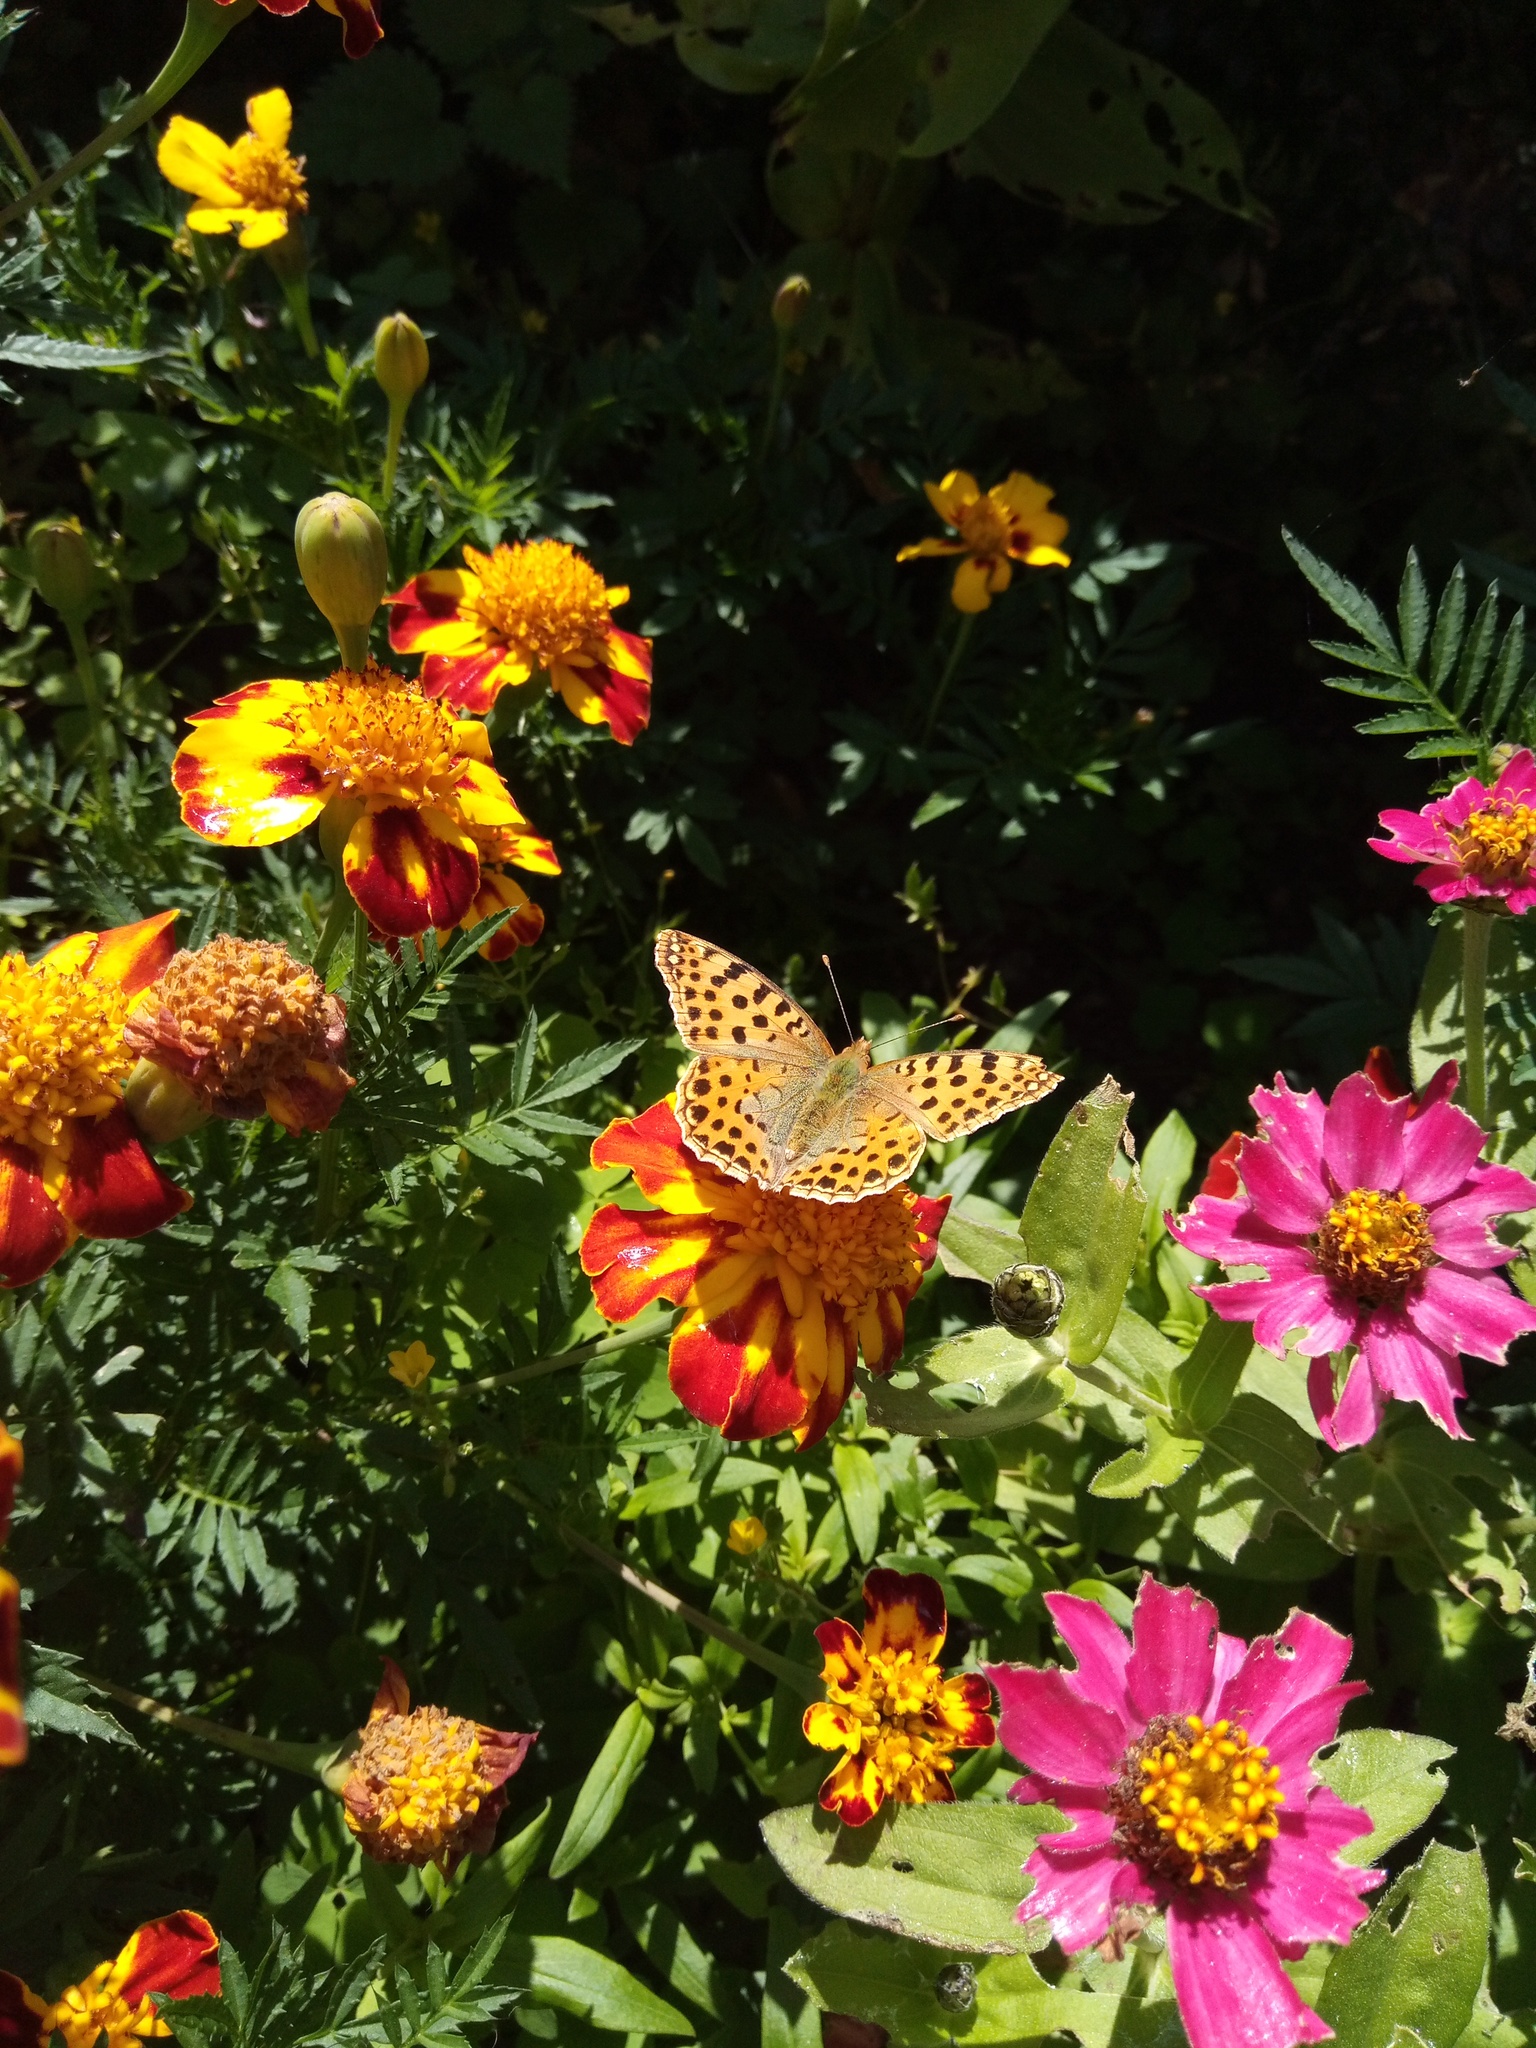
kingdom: Animalia
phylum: Arthropoda
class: Insecta
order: Lepidoptera
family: Nymphalidae
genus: Issoria
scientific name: Issoria lathonia
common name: Queen of spain fritillary
